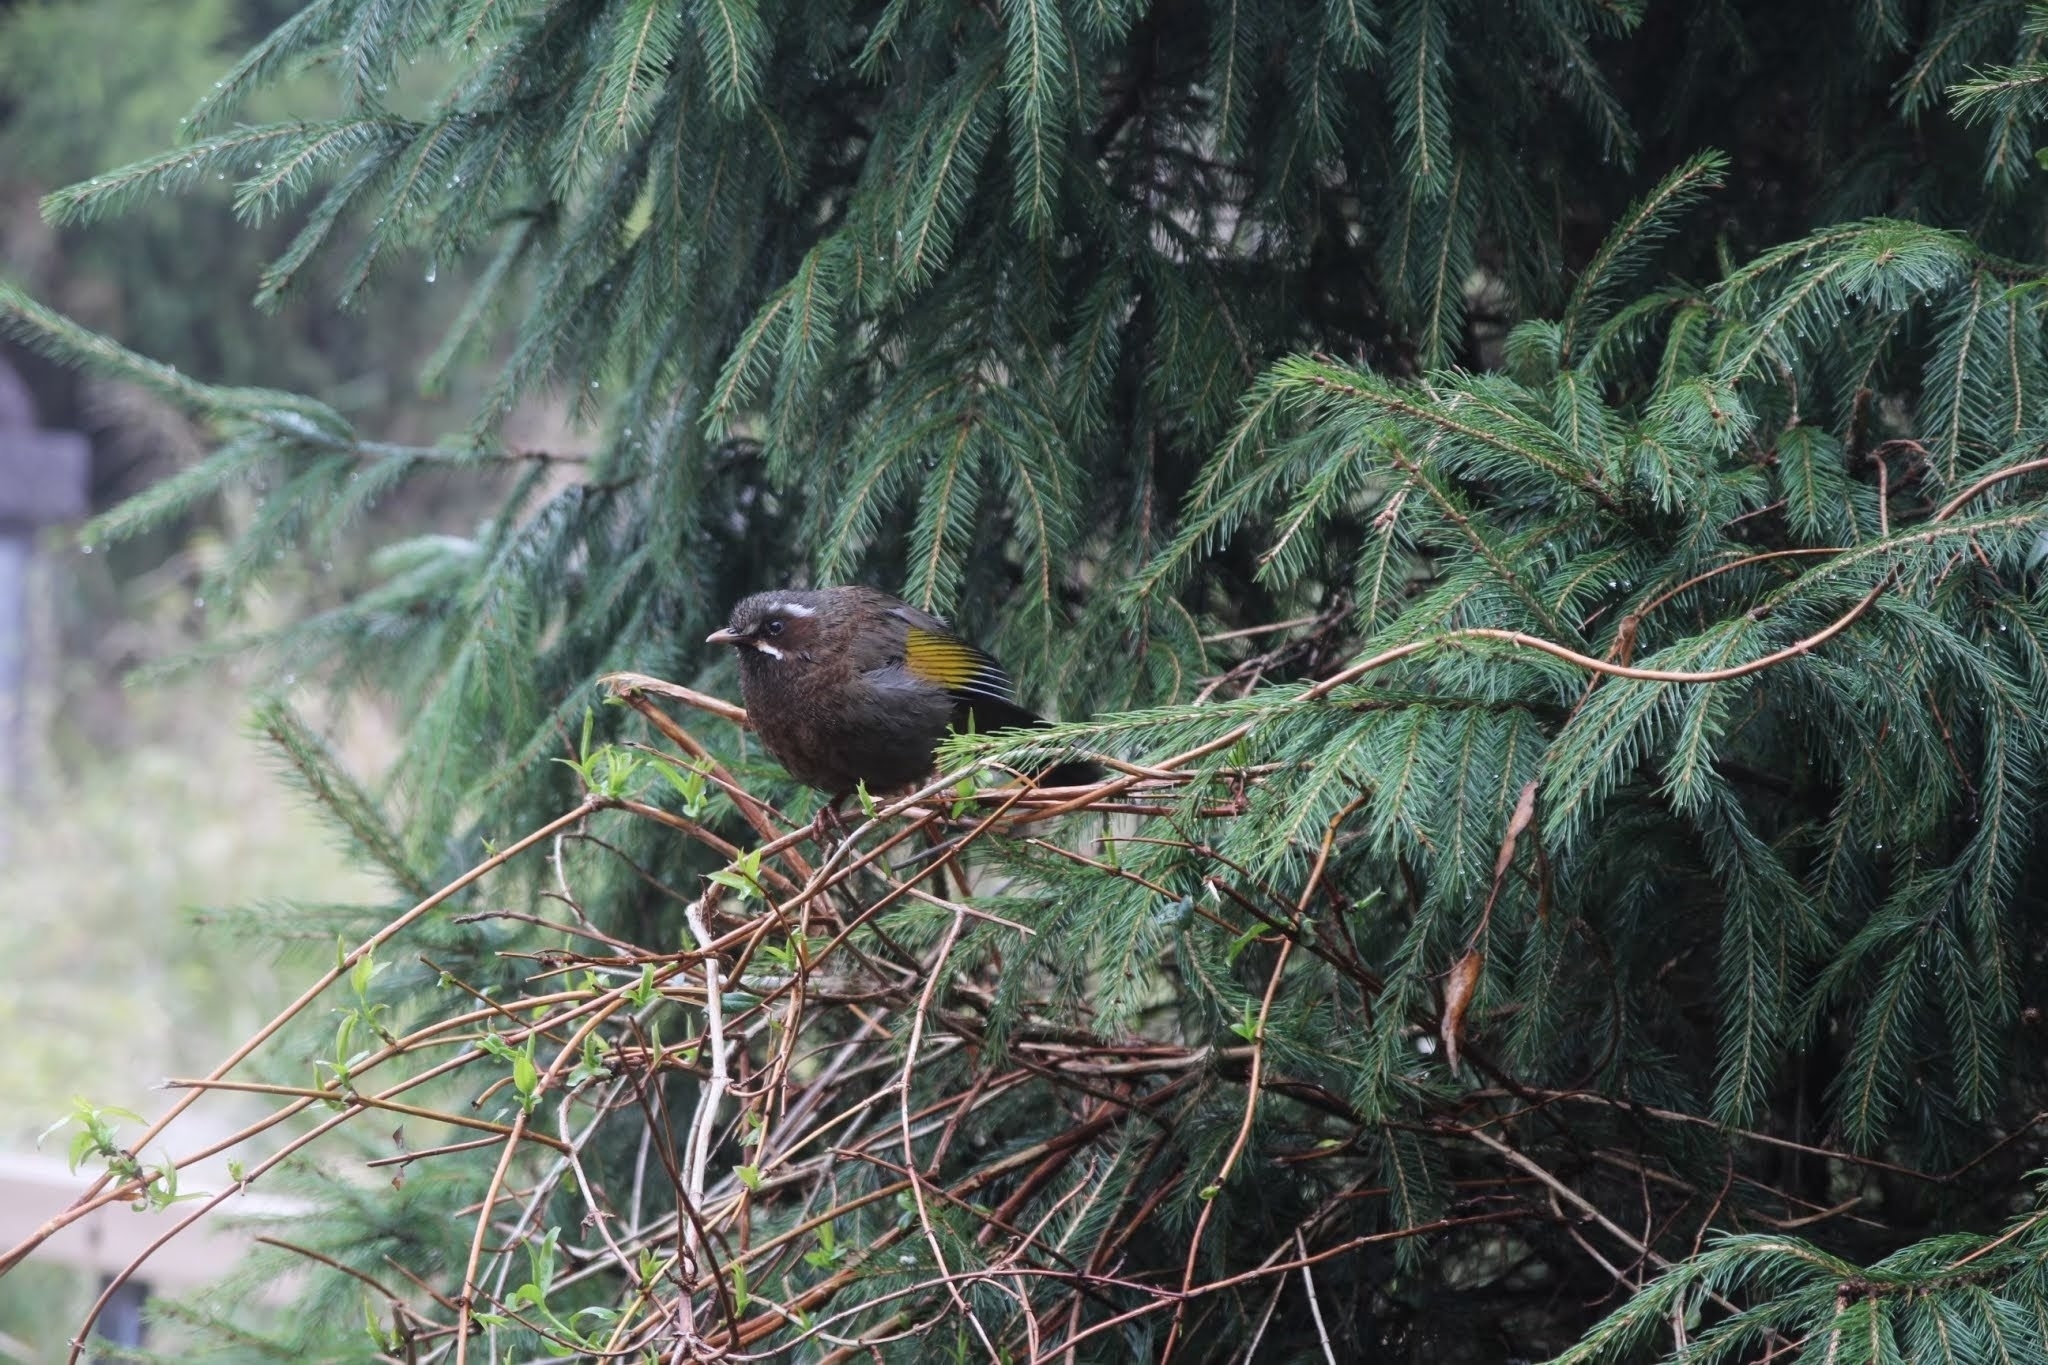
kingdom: Animalia
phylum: Chordata
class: Aves
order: Passeriformes
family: Leiothrichidae
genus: Trochalopteron
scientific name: Trochalopteron morrisonianum
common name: White-whiskered laughingthrush
